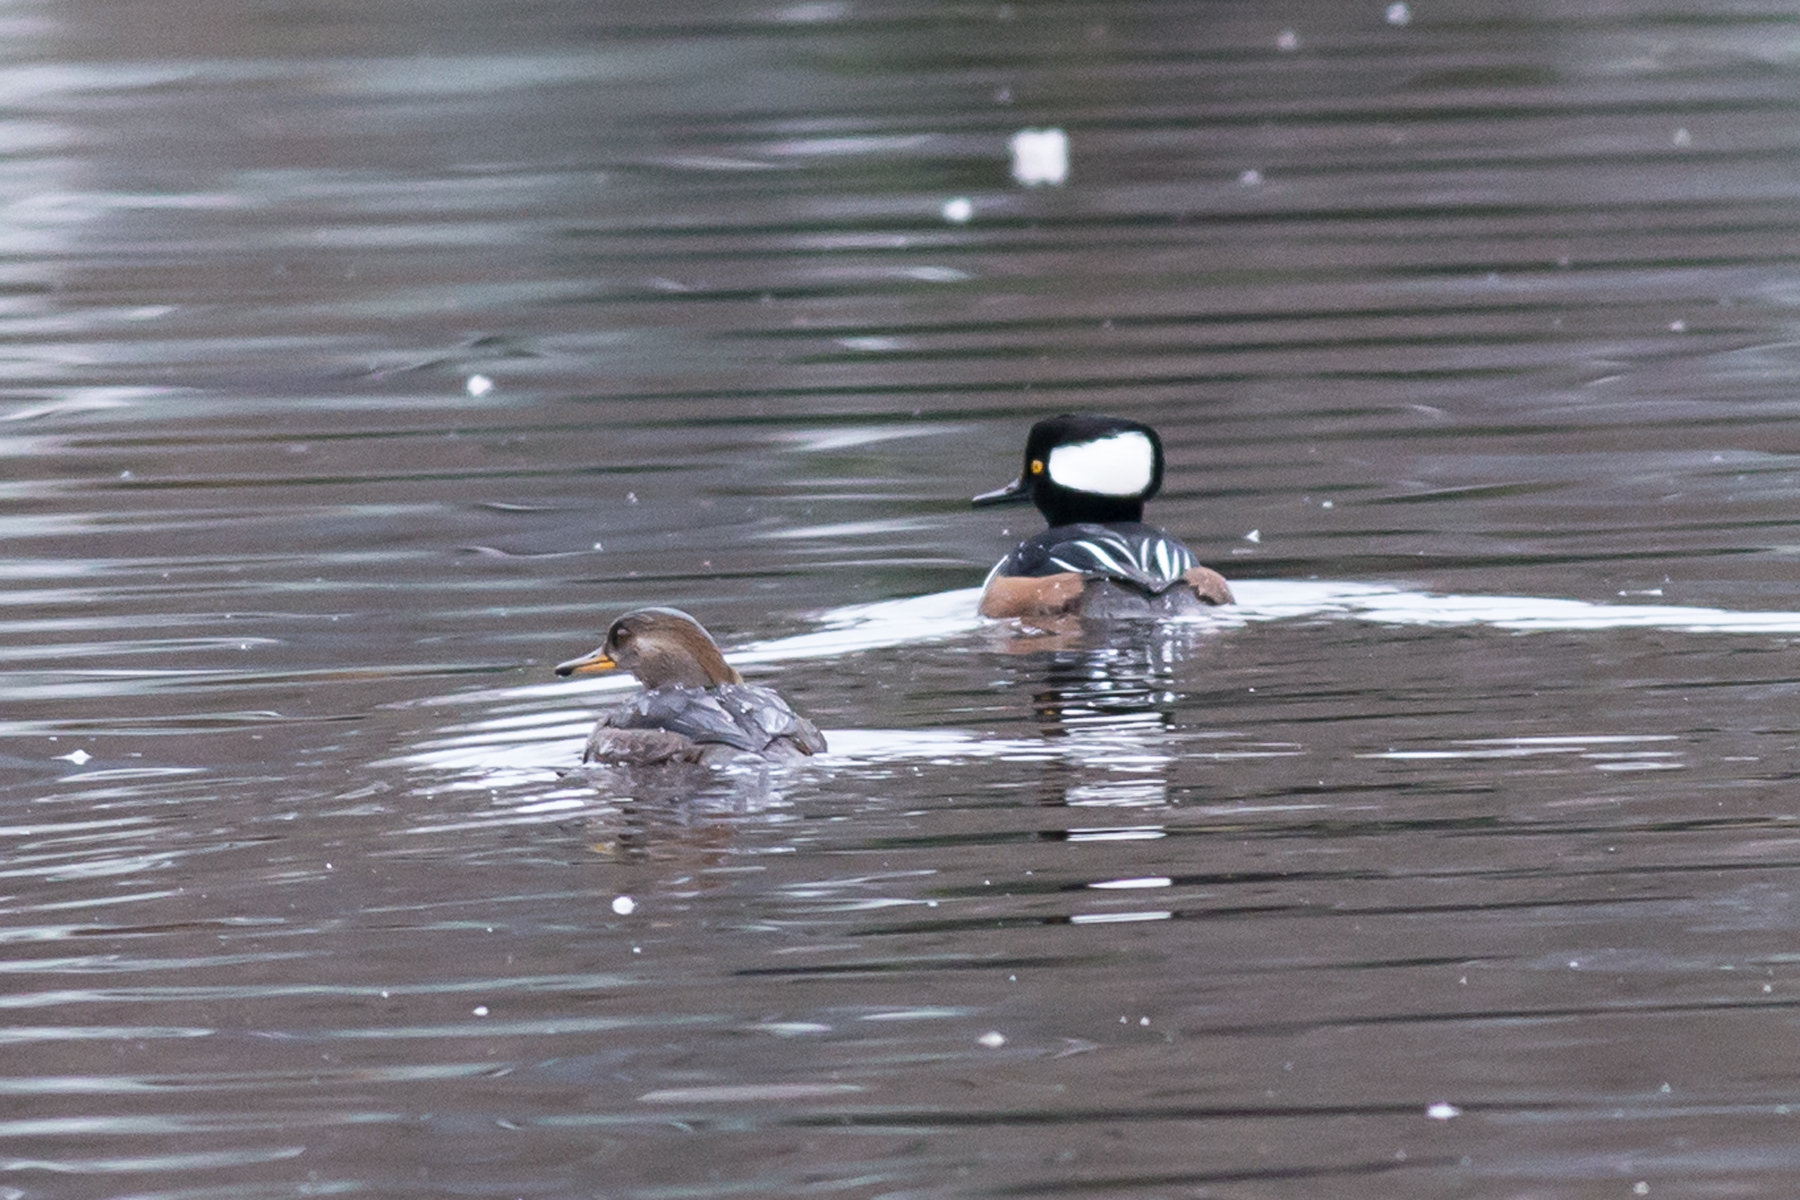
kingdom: Animalia
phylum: Chordata
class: Aves
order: Anseriformes
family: Anatidae
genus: Lophodytes
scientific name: Lophodytes cucullatus
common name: Hooded merganser
